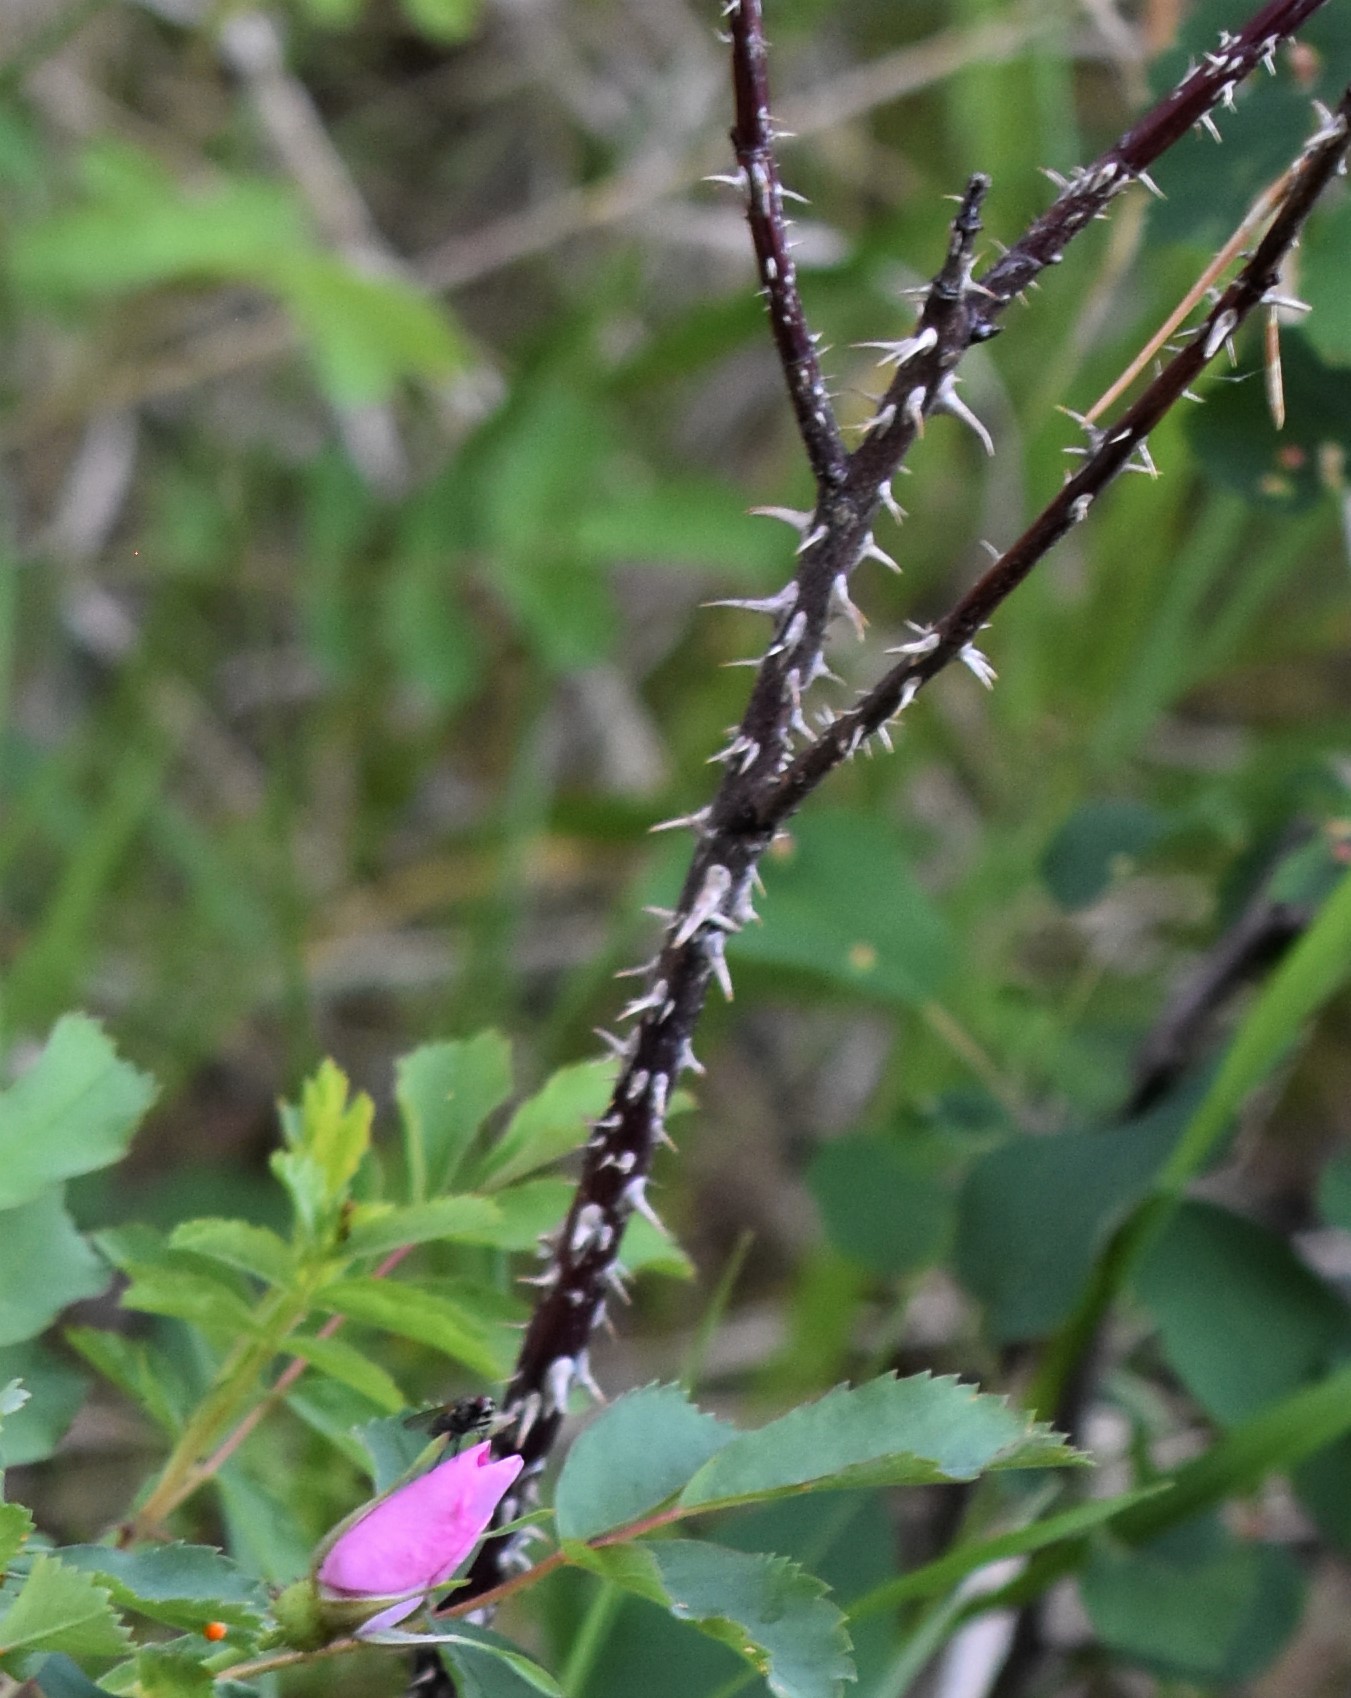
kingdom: Plantae
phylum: Tracheophyta
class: Magnoliopsida
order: Rosales
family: Rosaceae
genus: Rosa
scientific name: Rosa woodsii
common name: Woods's rose
